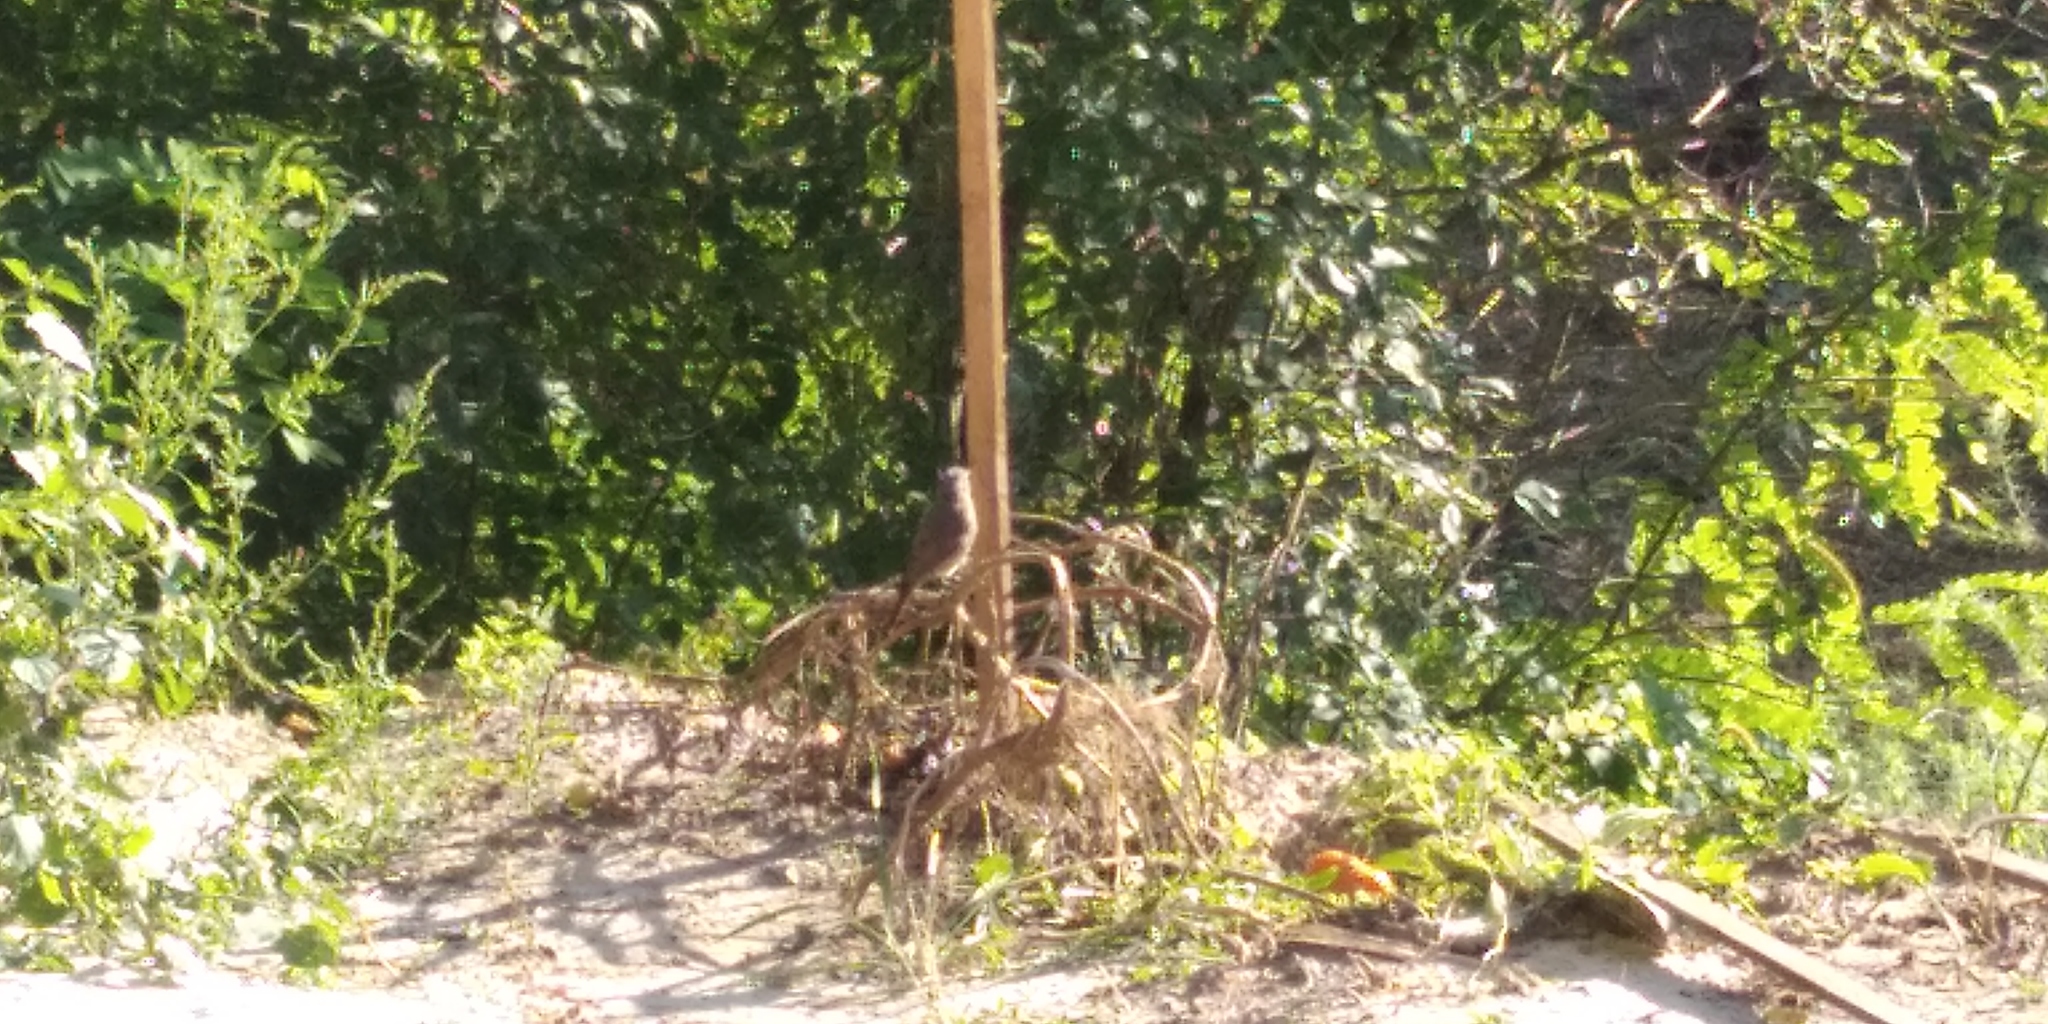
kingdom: Animalia
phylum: Chordata
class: Aves
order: Passeriformes
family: Muscicapidae
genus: Phoenicurus
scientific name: Phoenicurus phoenicurus
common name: Common redstart
